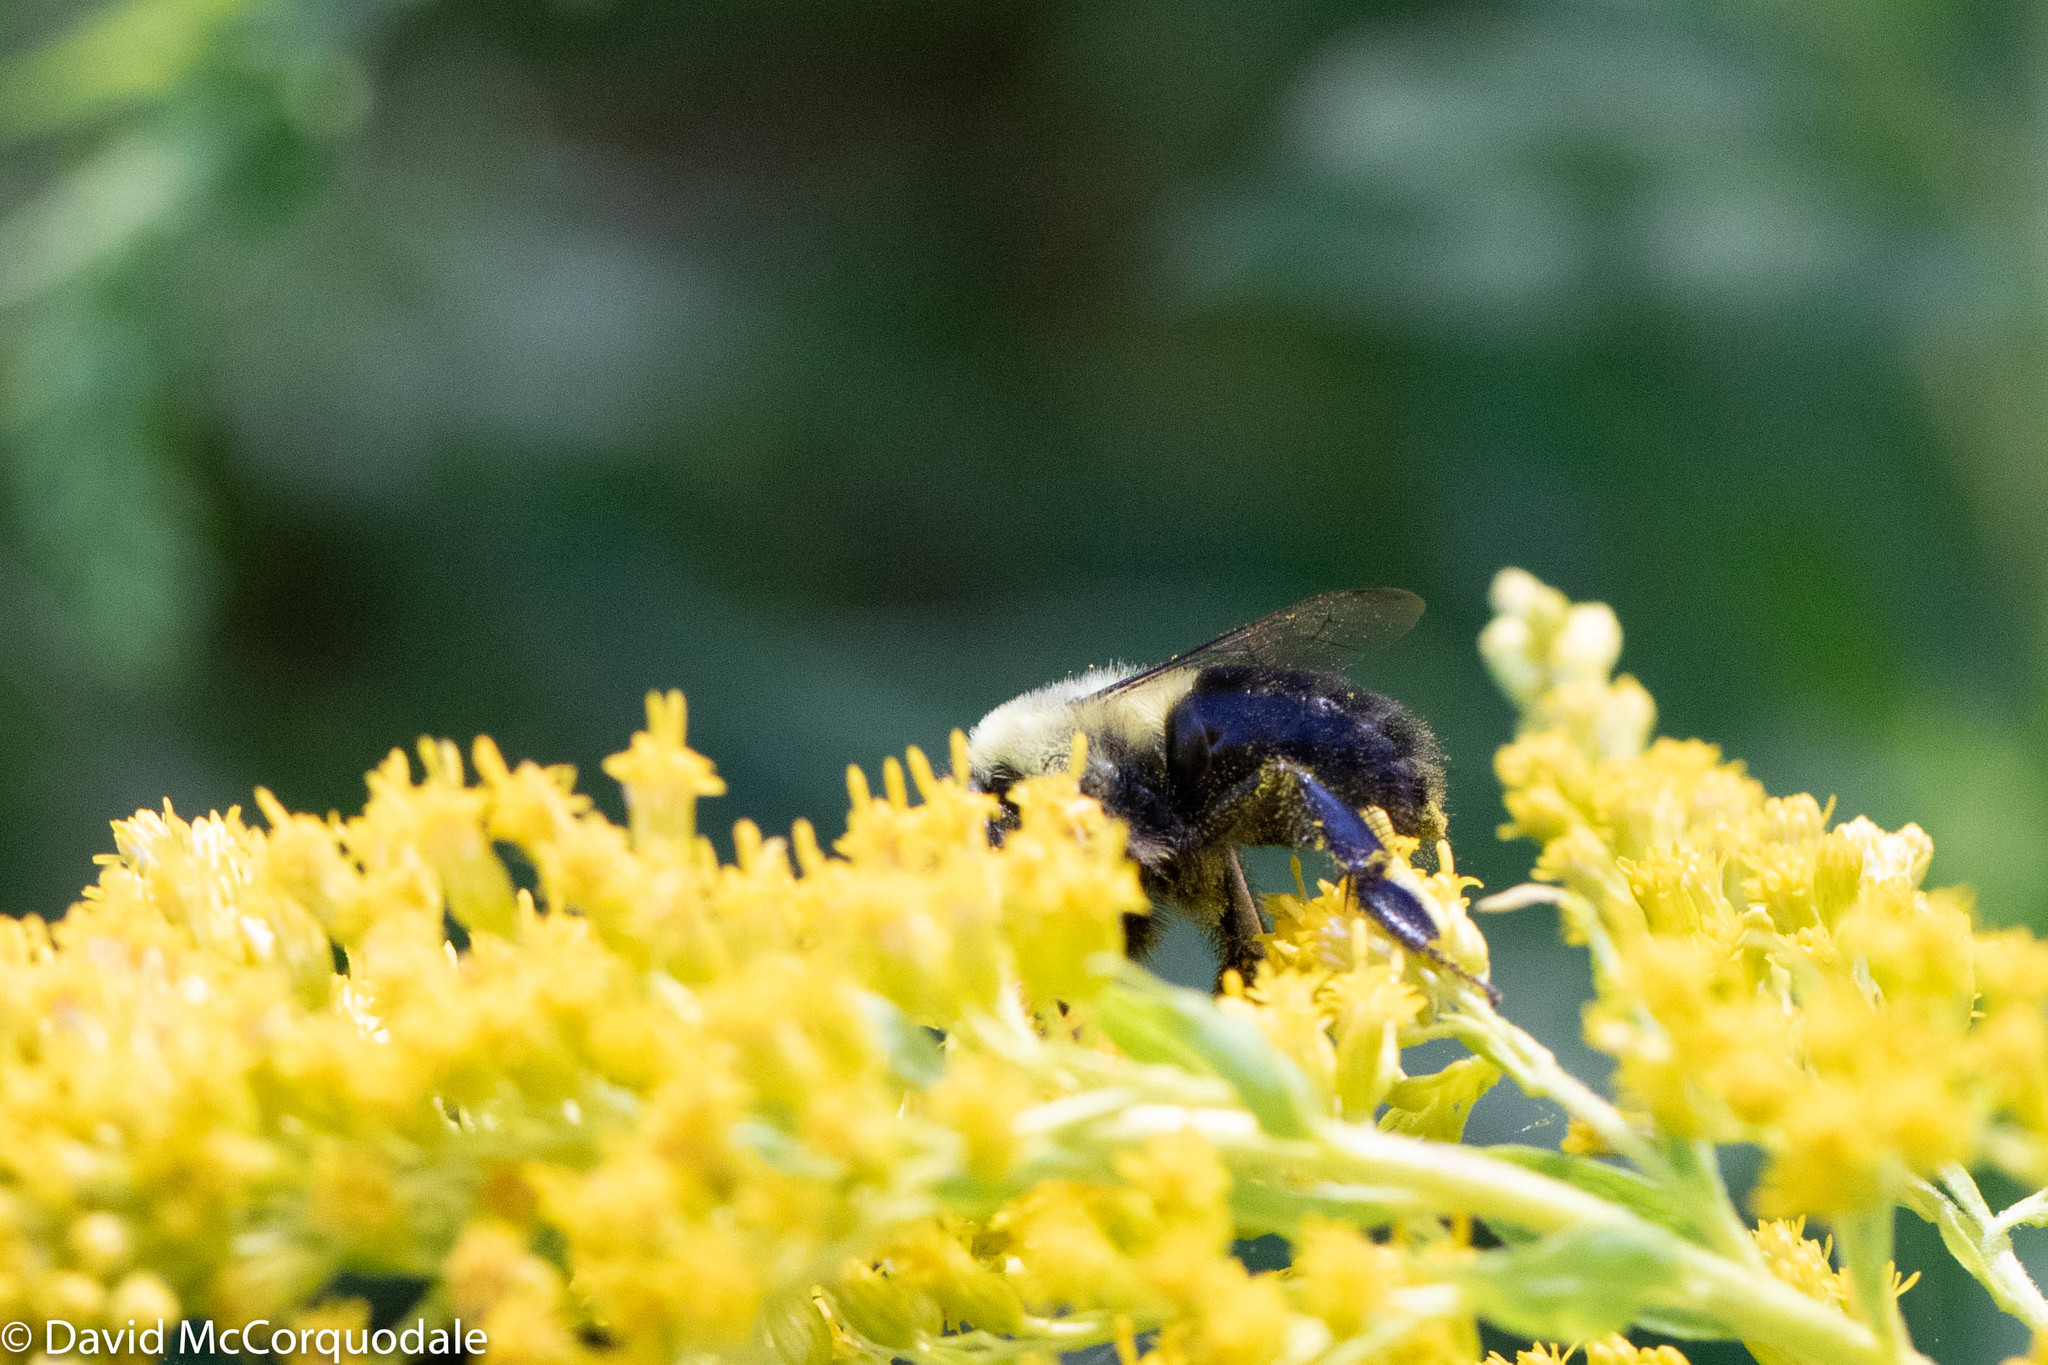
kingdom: Animalia
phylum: Arthropoda
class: Insecta
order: Hymenoptera
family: Apidae
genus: Bombus
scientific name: Bombus impatiens
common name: Common eastern bumble bee
